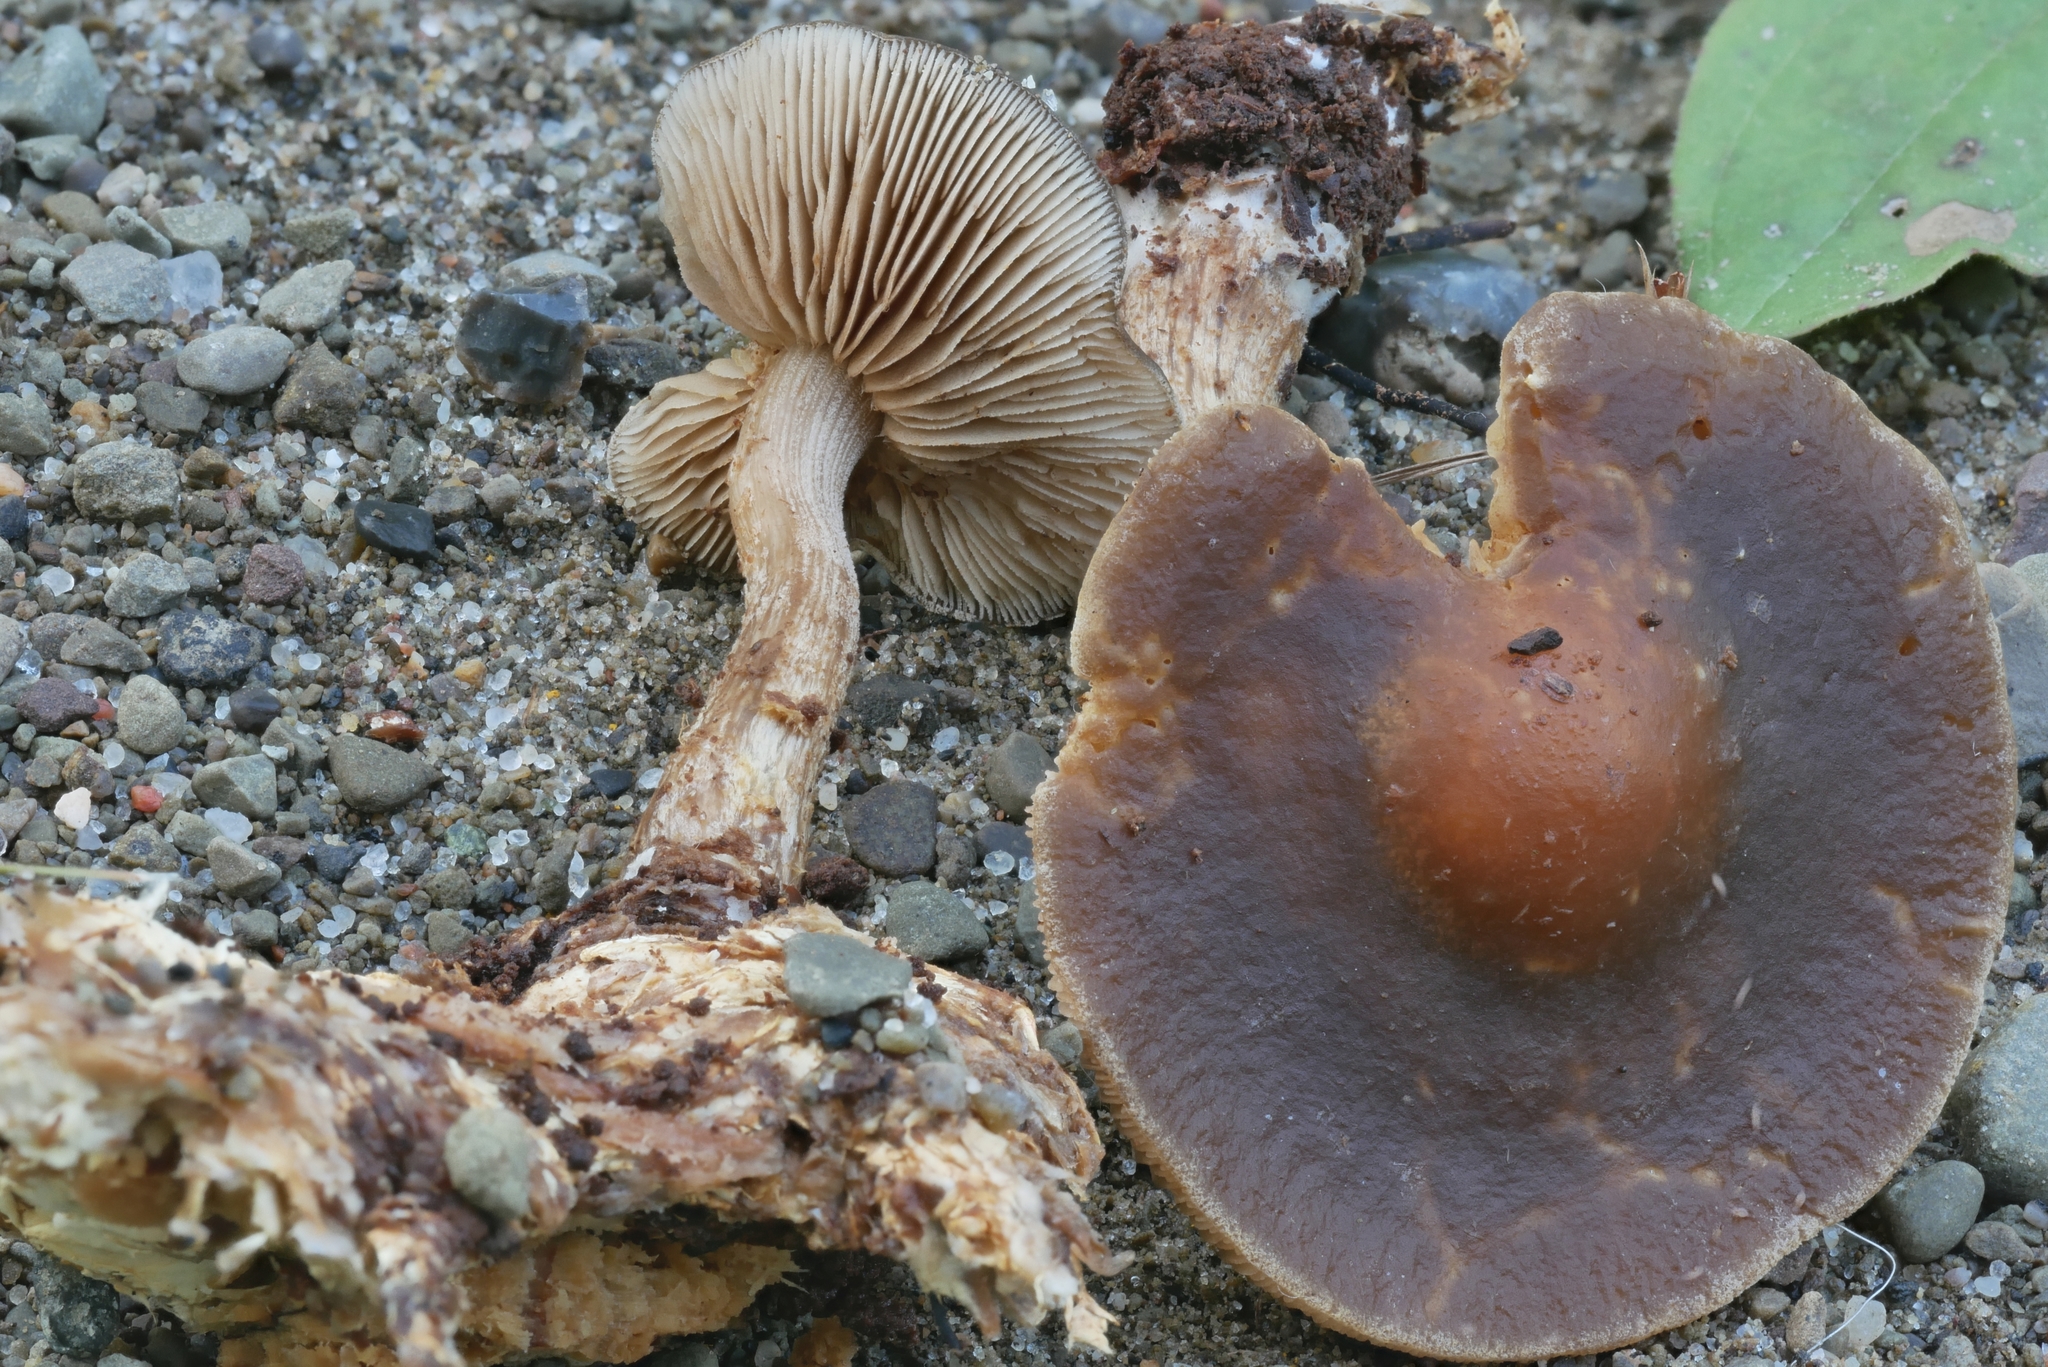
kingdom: Fungi
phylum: Basidiomycota
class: Agaricomycetes
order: Agaricales
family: Strophariaceae
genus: Agrocybe
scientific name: Agrocybe firma
